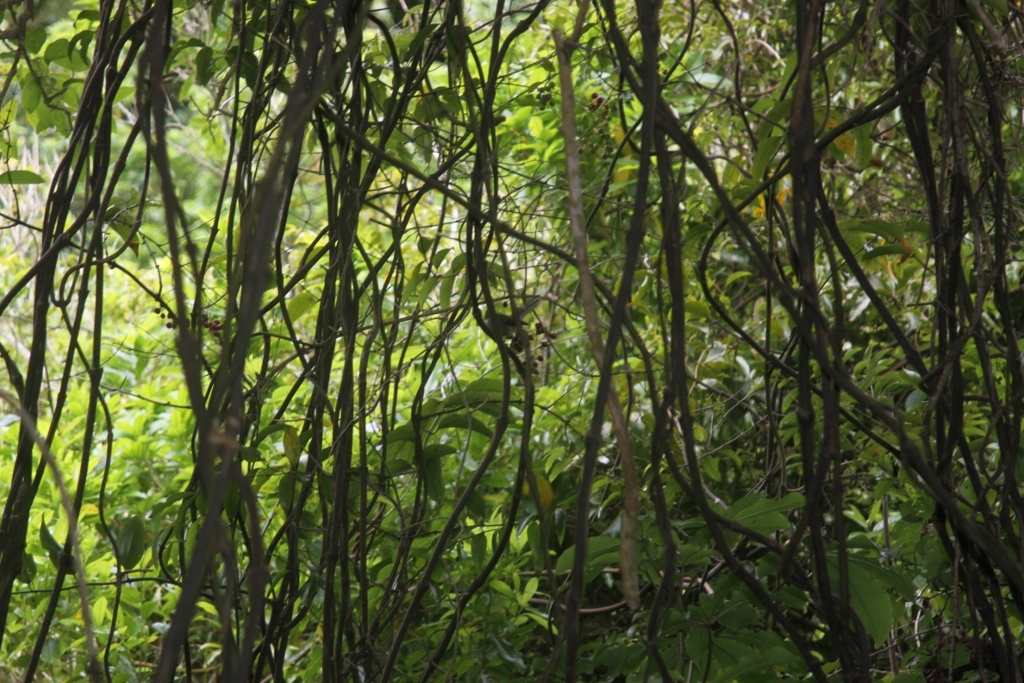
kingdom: Animalia
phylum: Chordata
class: Aves
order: Passeriformes
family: Rhipiduridae
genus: Rhipidura
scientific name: Rhipidura fuliginosa
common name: New zealand fantail
